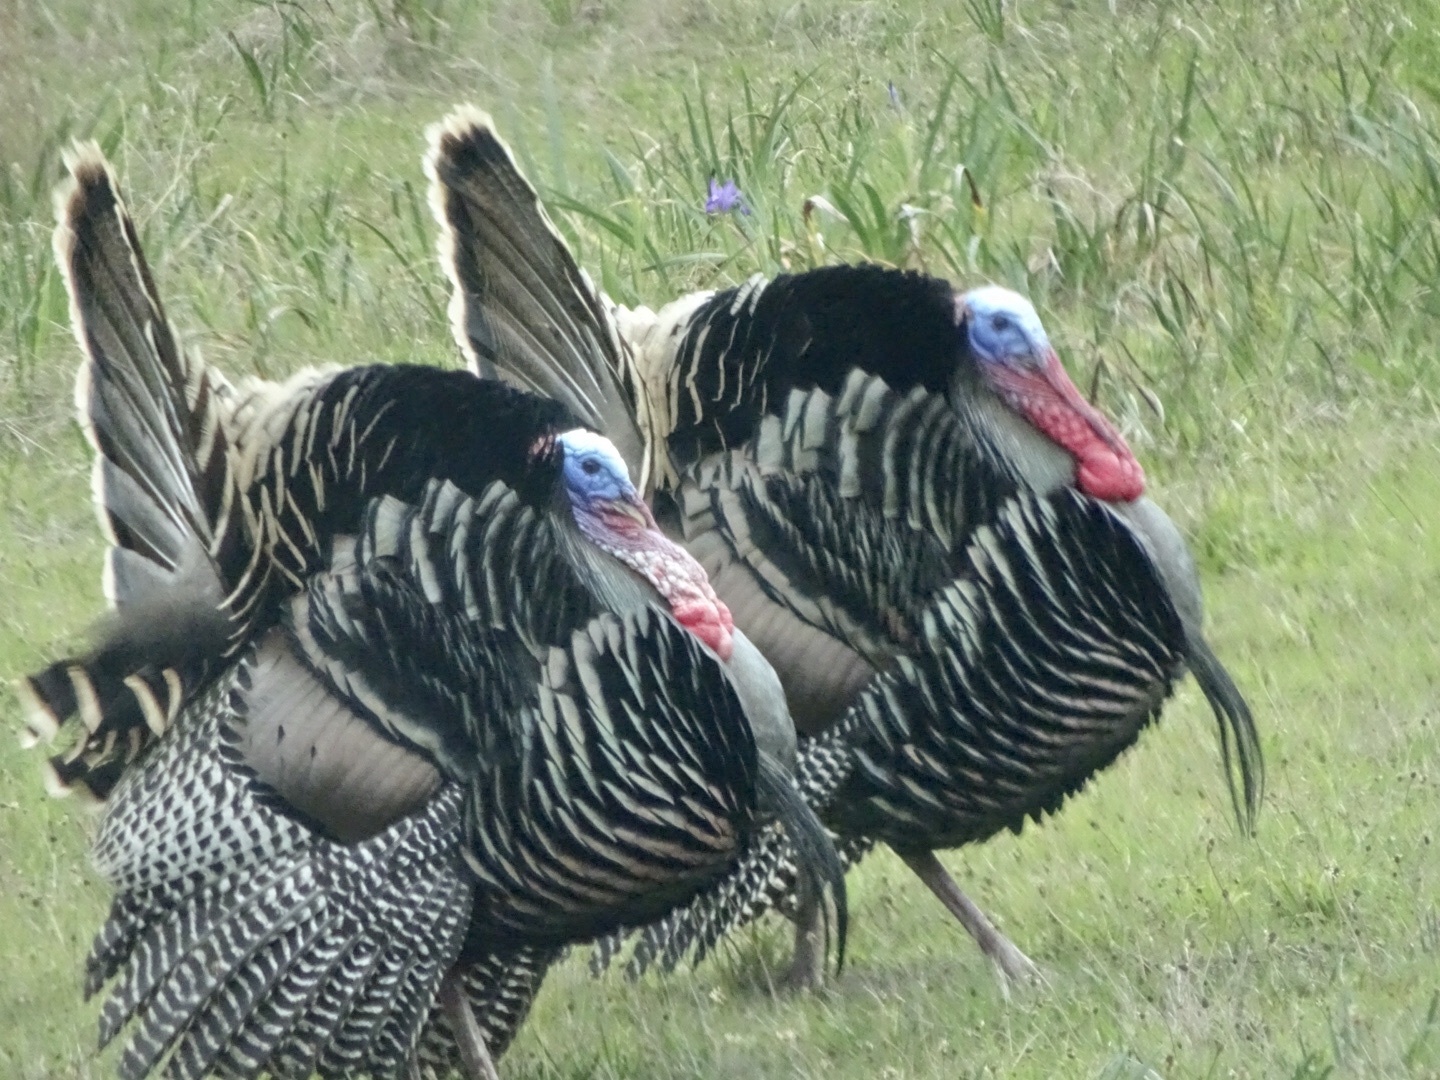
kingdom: Animalia
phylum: Chordata
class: Aves
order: Galliformes
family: Phasianidae
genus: Meleagris
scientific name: Meleagris gallopavo
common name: Wild turkey
